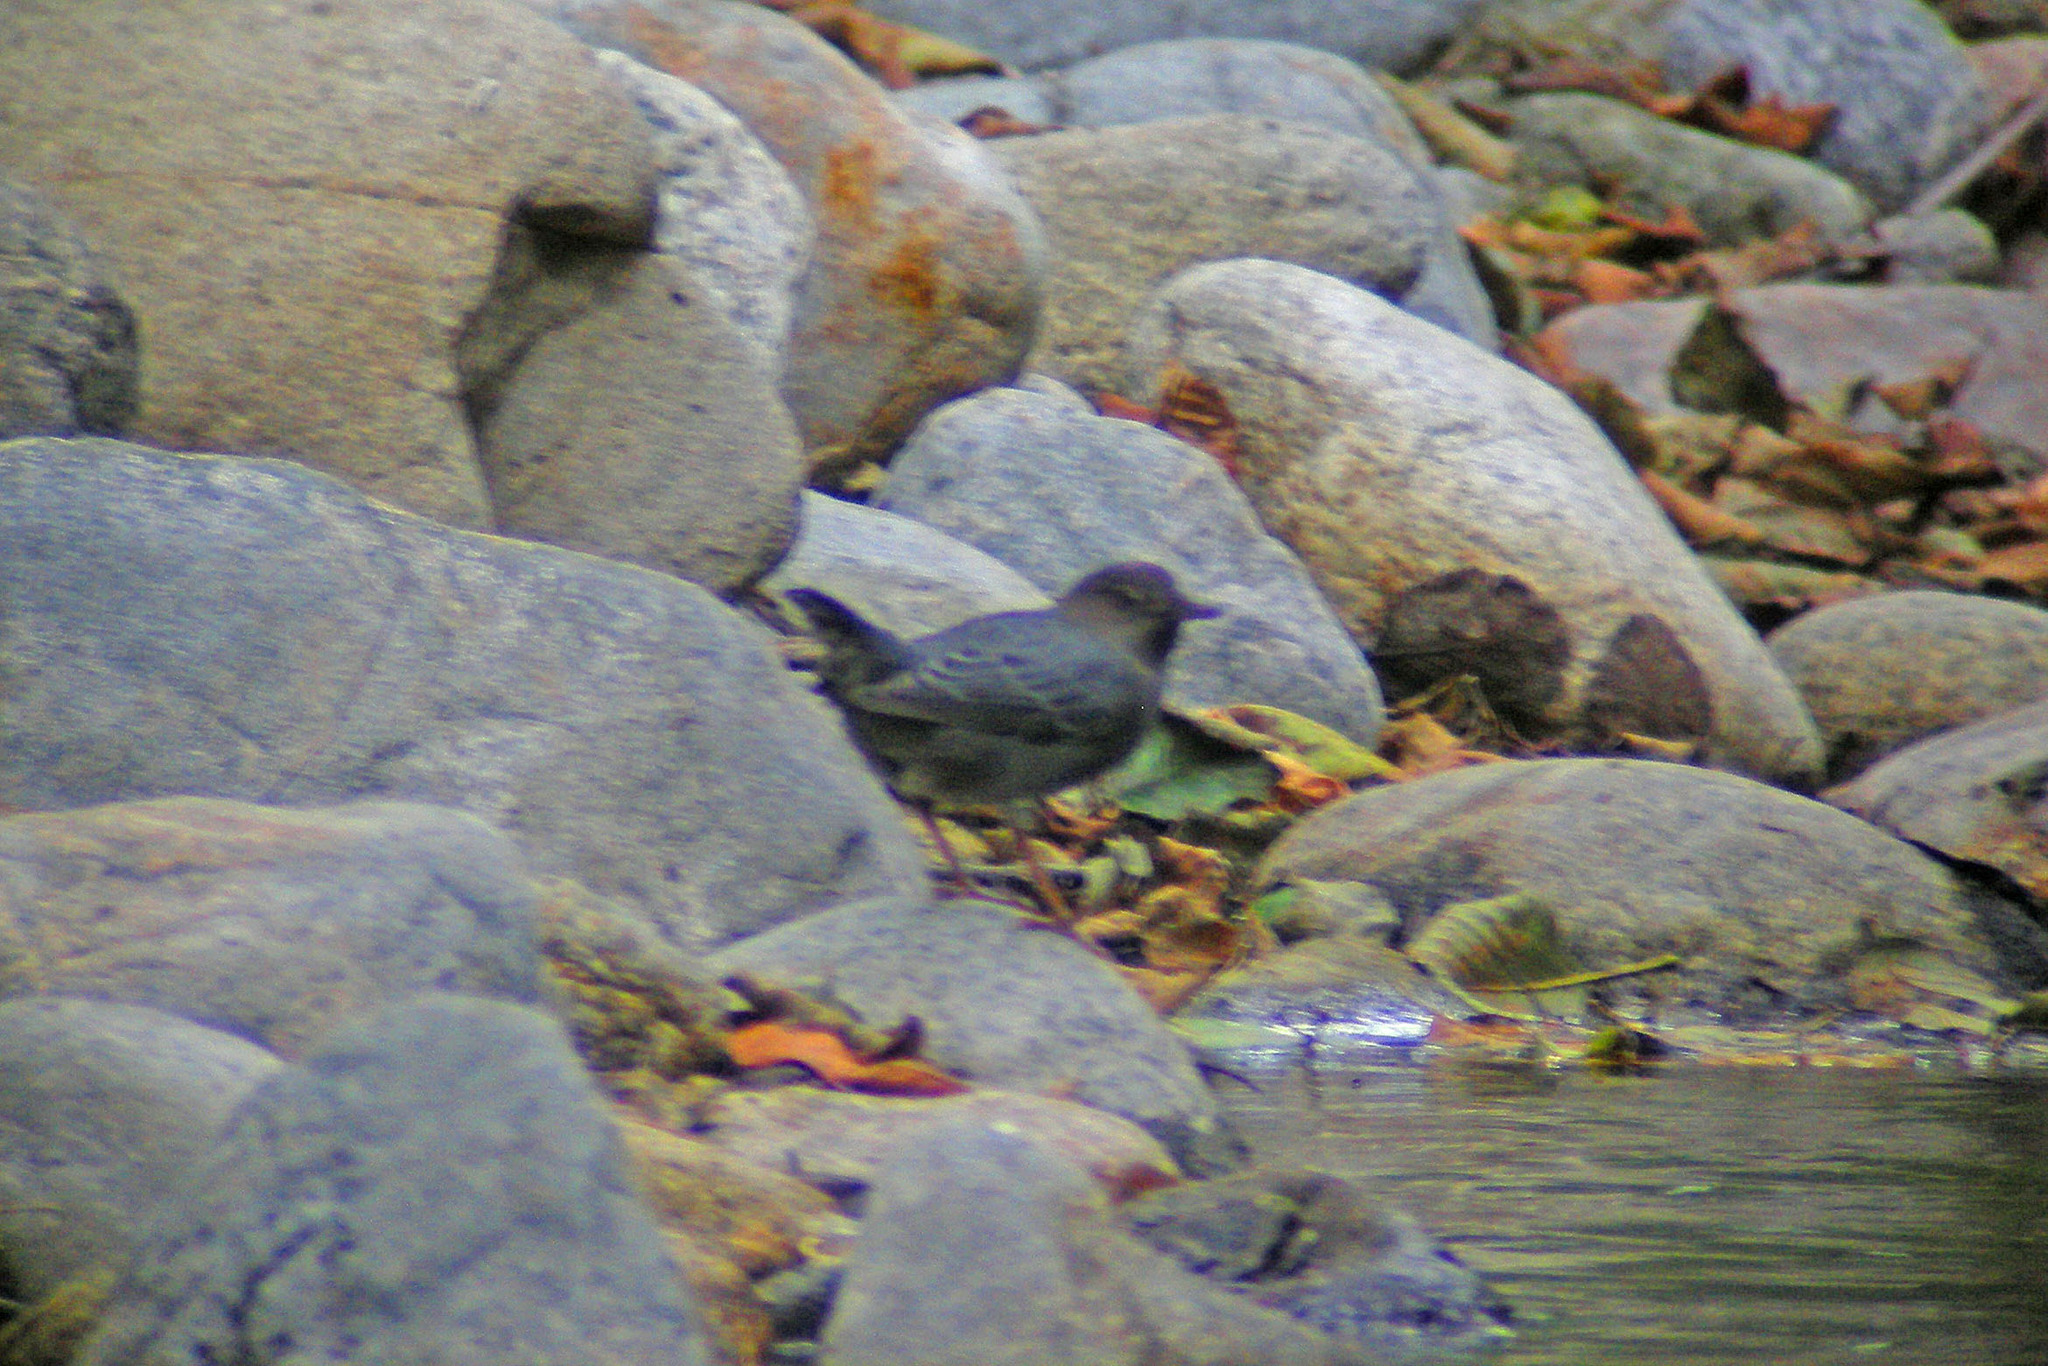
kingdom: Animalia
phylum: Chordata
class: Aves
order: Passeriformes
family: Cinclidae
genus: Cinclus
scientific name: Cinclus mexicanus
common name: American dipper
